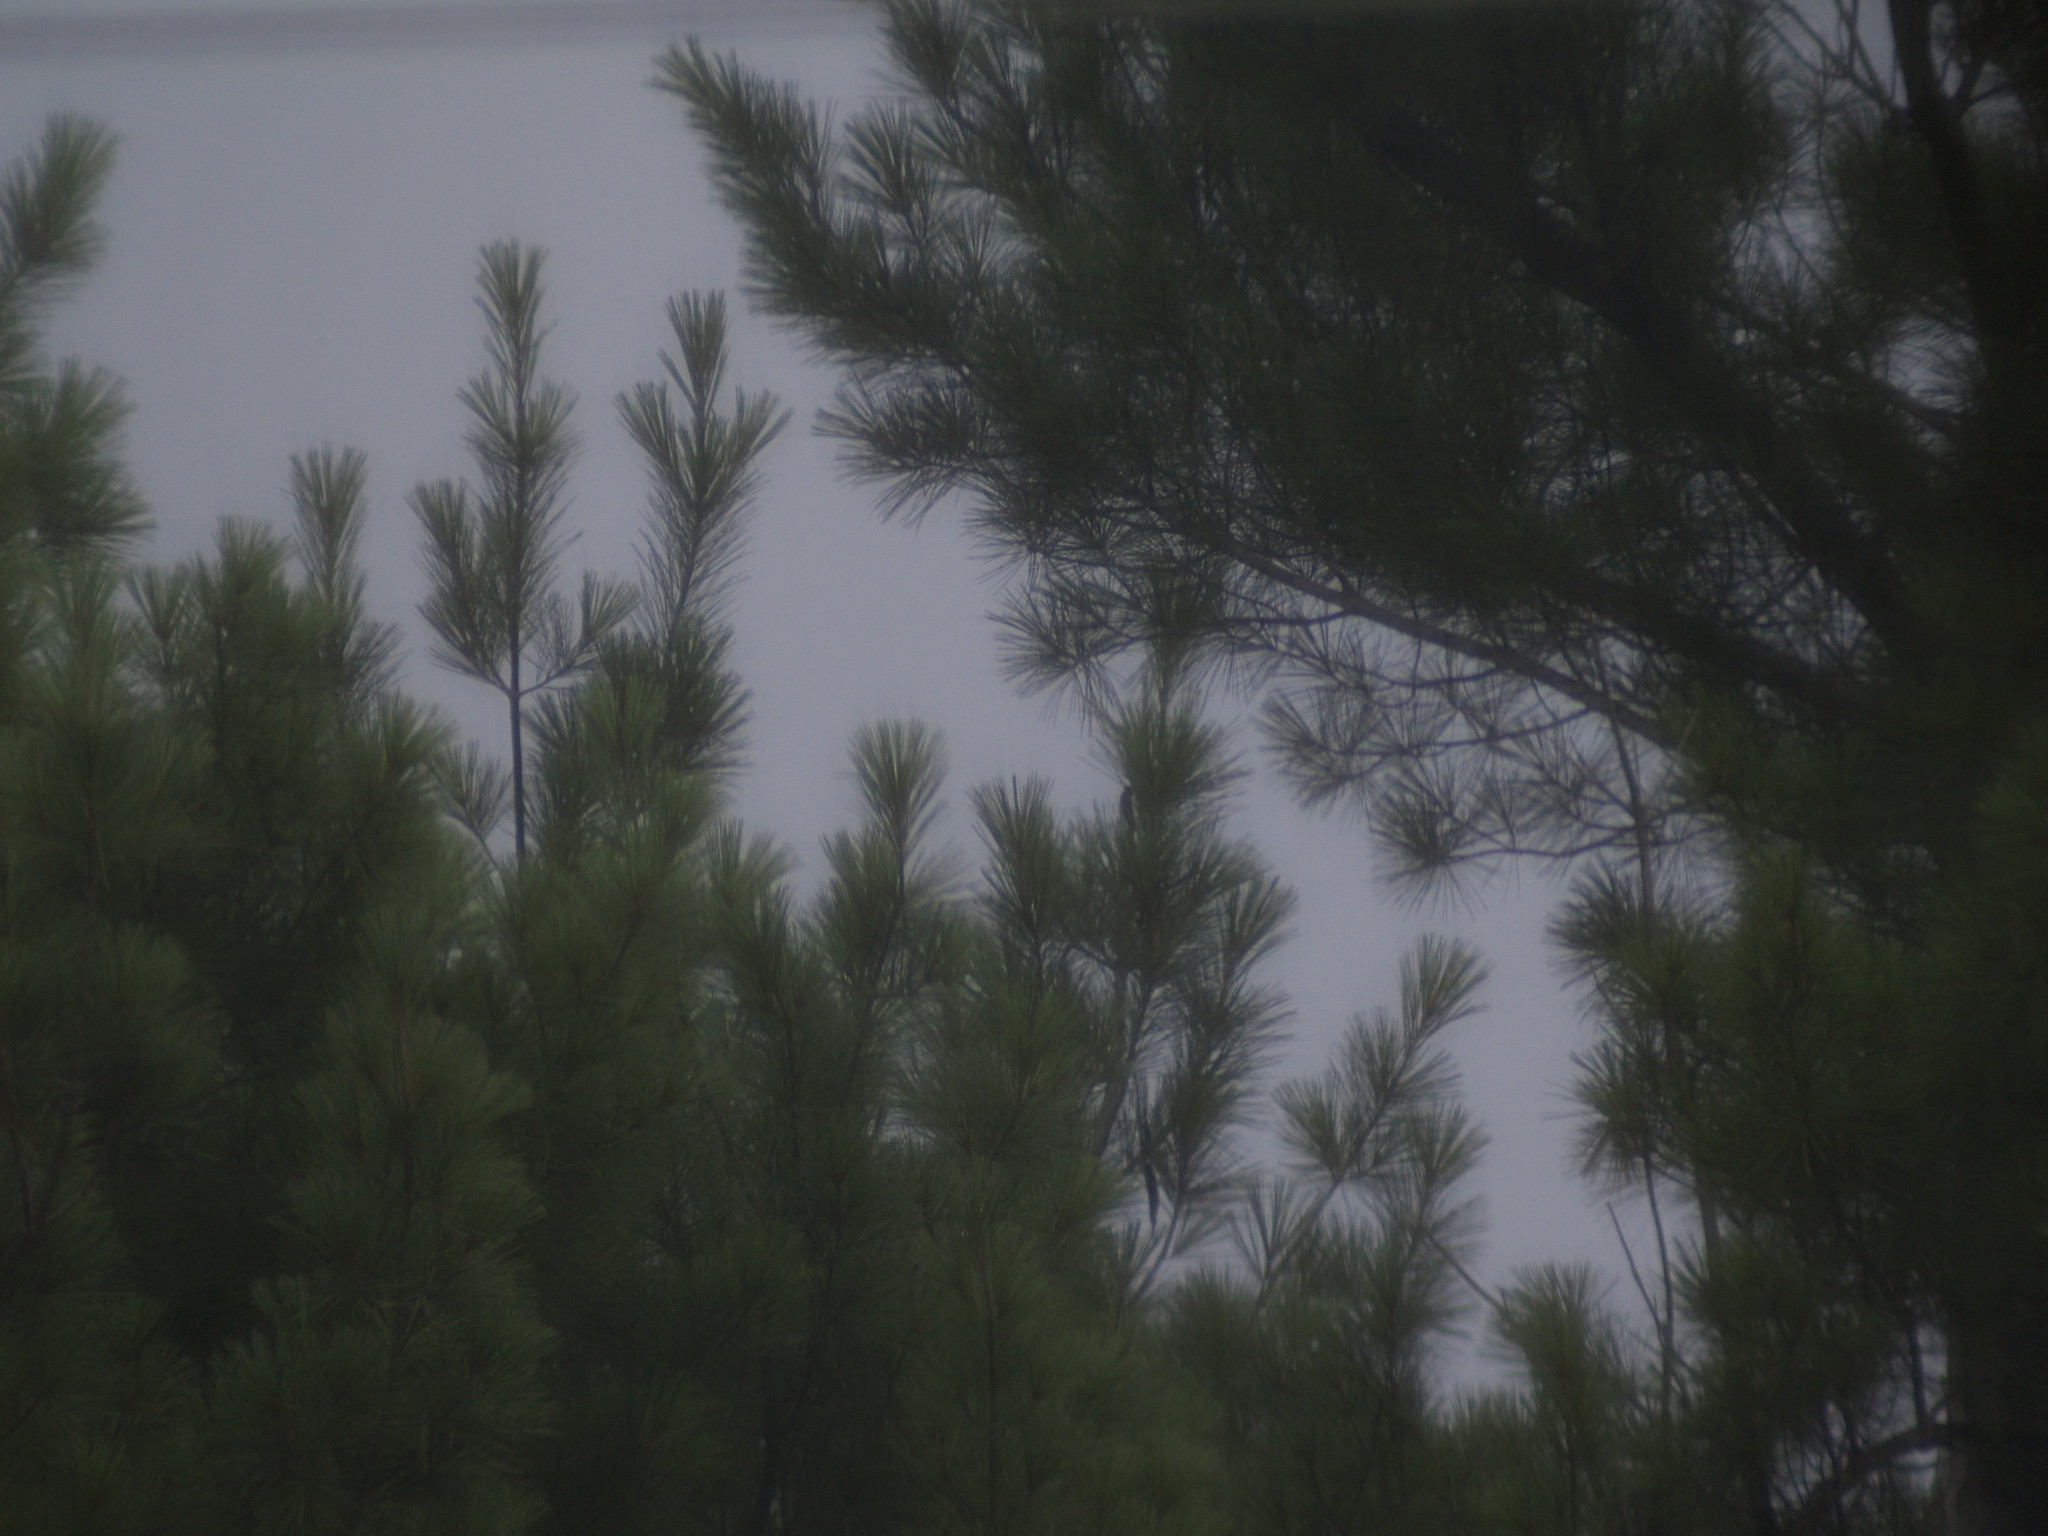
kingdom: Plantae
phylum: Tracheophyta
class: Pinopsida
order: Pinales
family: Pinaceae
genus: Pinus
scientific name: Pinus strobus
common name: Weymouth pine
